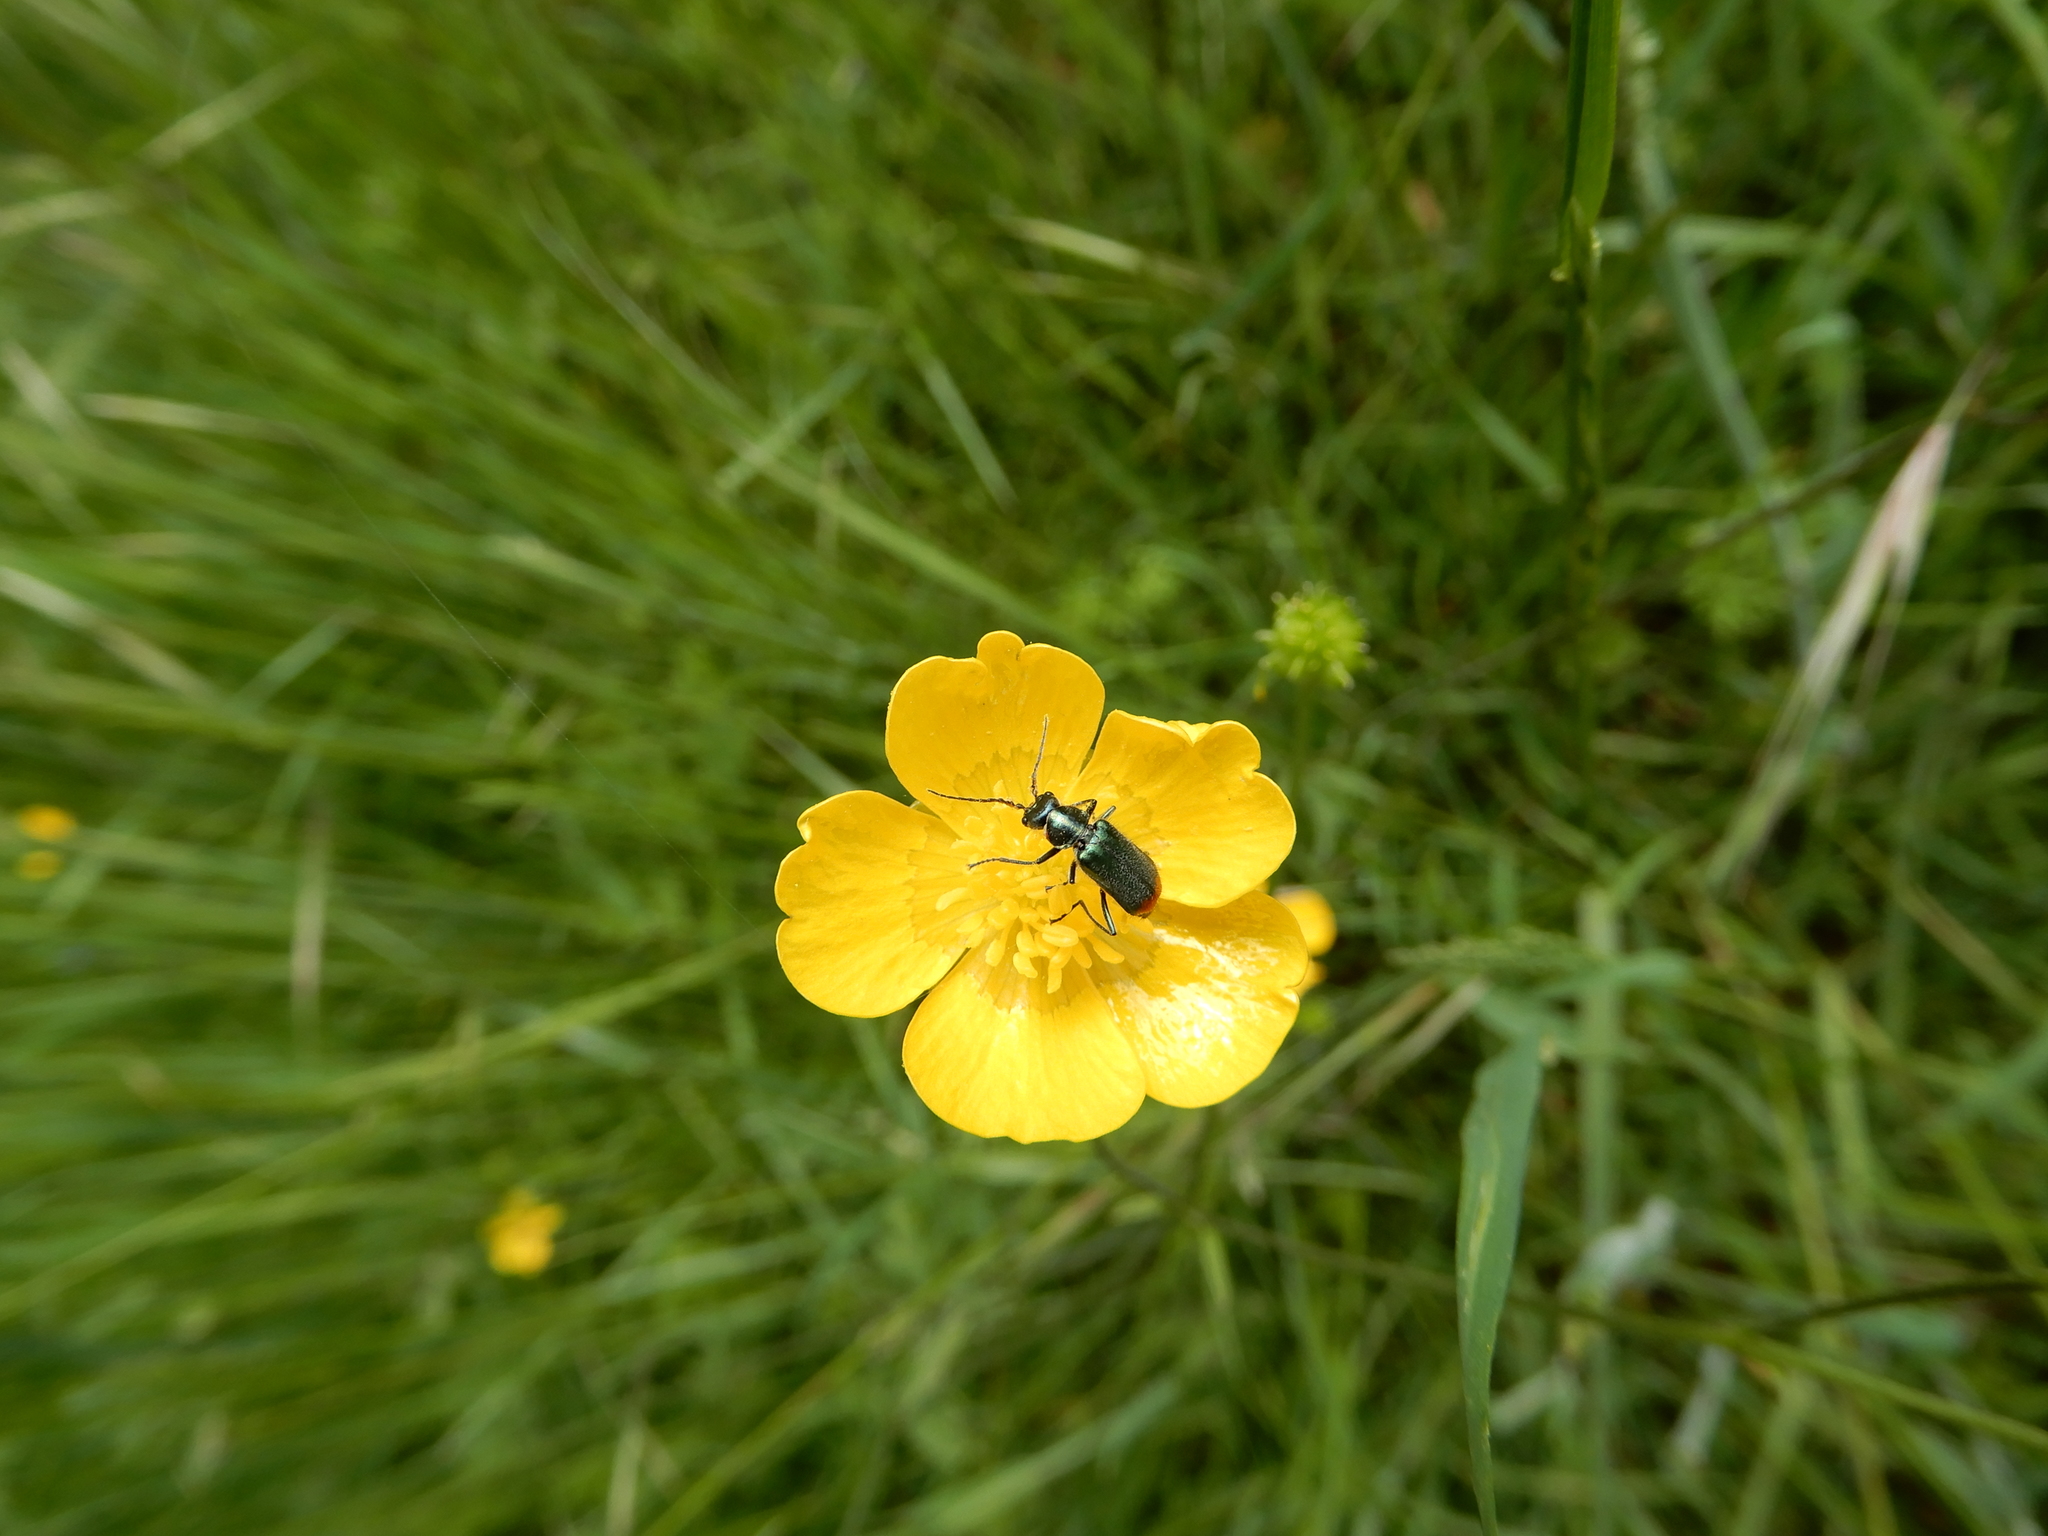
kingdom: Animalia
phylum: Arthropoda
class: Insecta
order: Coleoptera
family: Melyridae
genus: Malachius
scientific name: Malachius bipustulatus
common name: Malachite beetle
